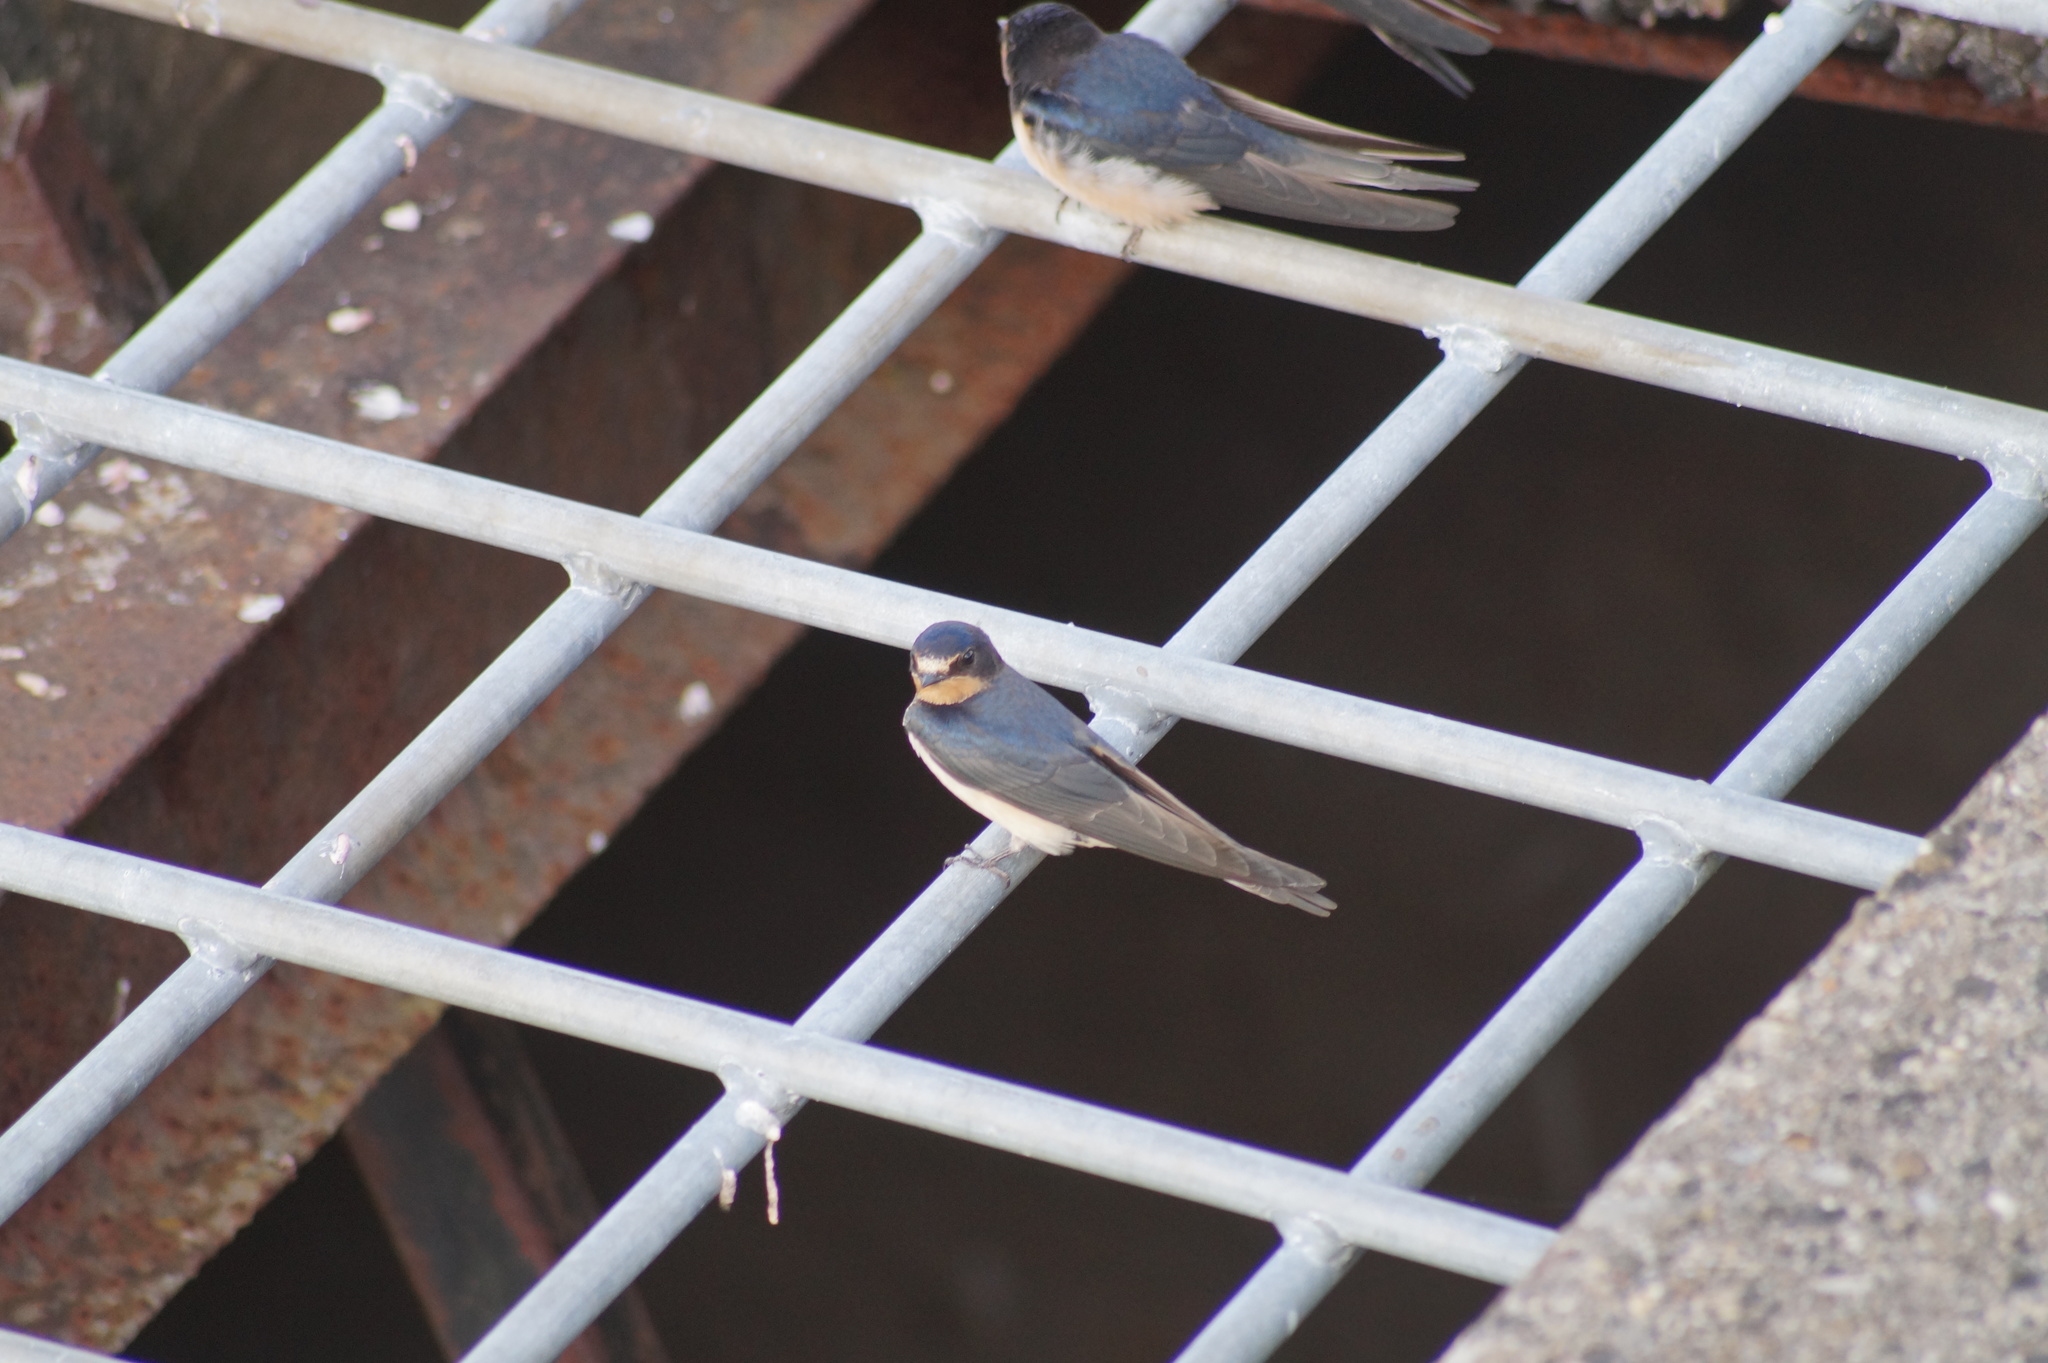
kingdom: Animalia
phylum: Chordata
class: Aves
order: Passeriformes
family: Hirundinidae
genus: Hirundo
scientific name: Hirundo rustica
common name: Barn swallow
